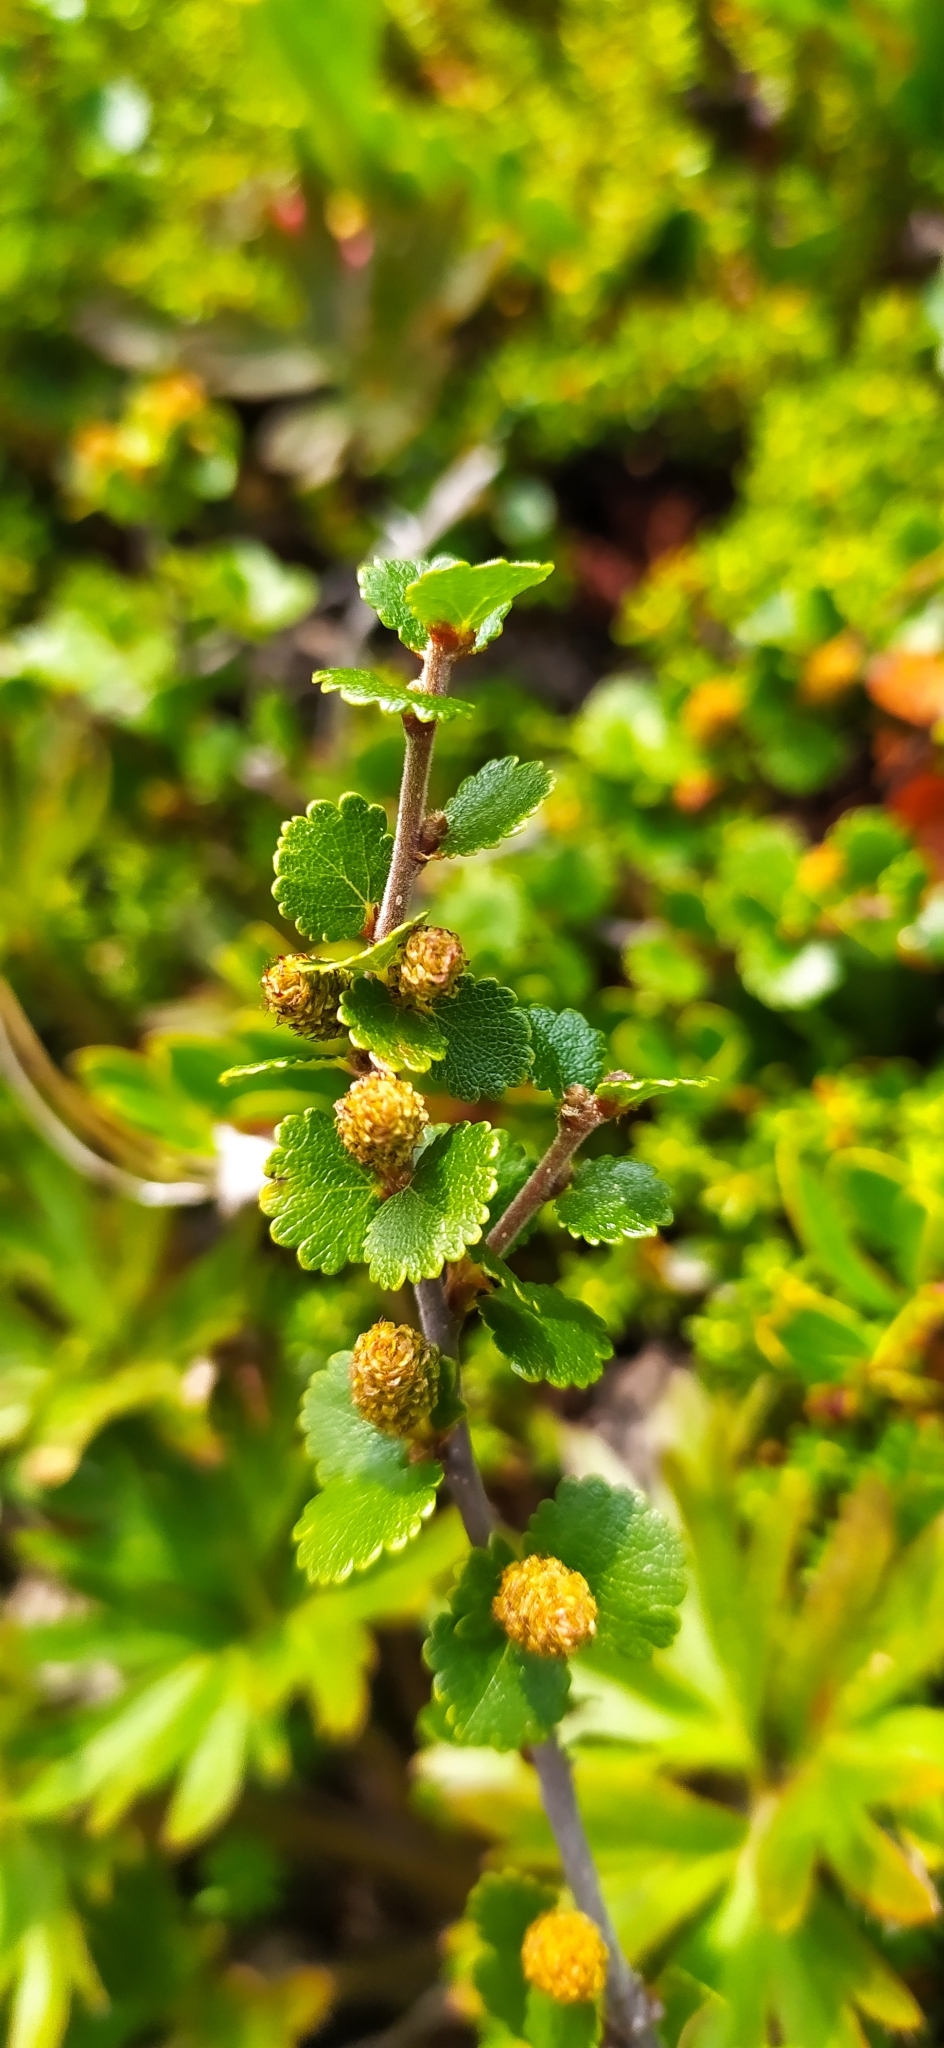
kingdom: Plantae
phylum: Tracheophyta
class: Magnoliopsida
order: Fagales
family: Betulaceae
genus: Betula
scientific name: Betula nana
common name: Arctic dwarf birch
